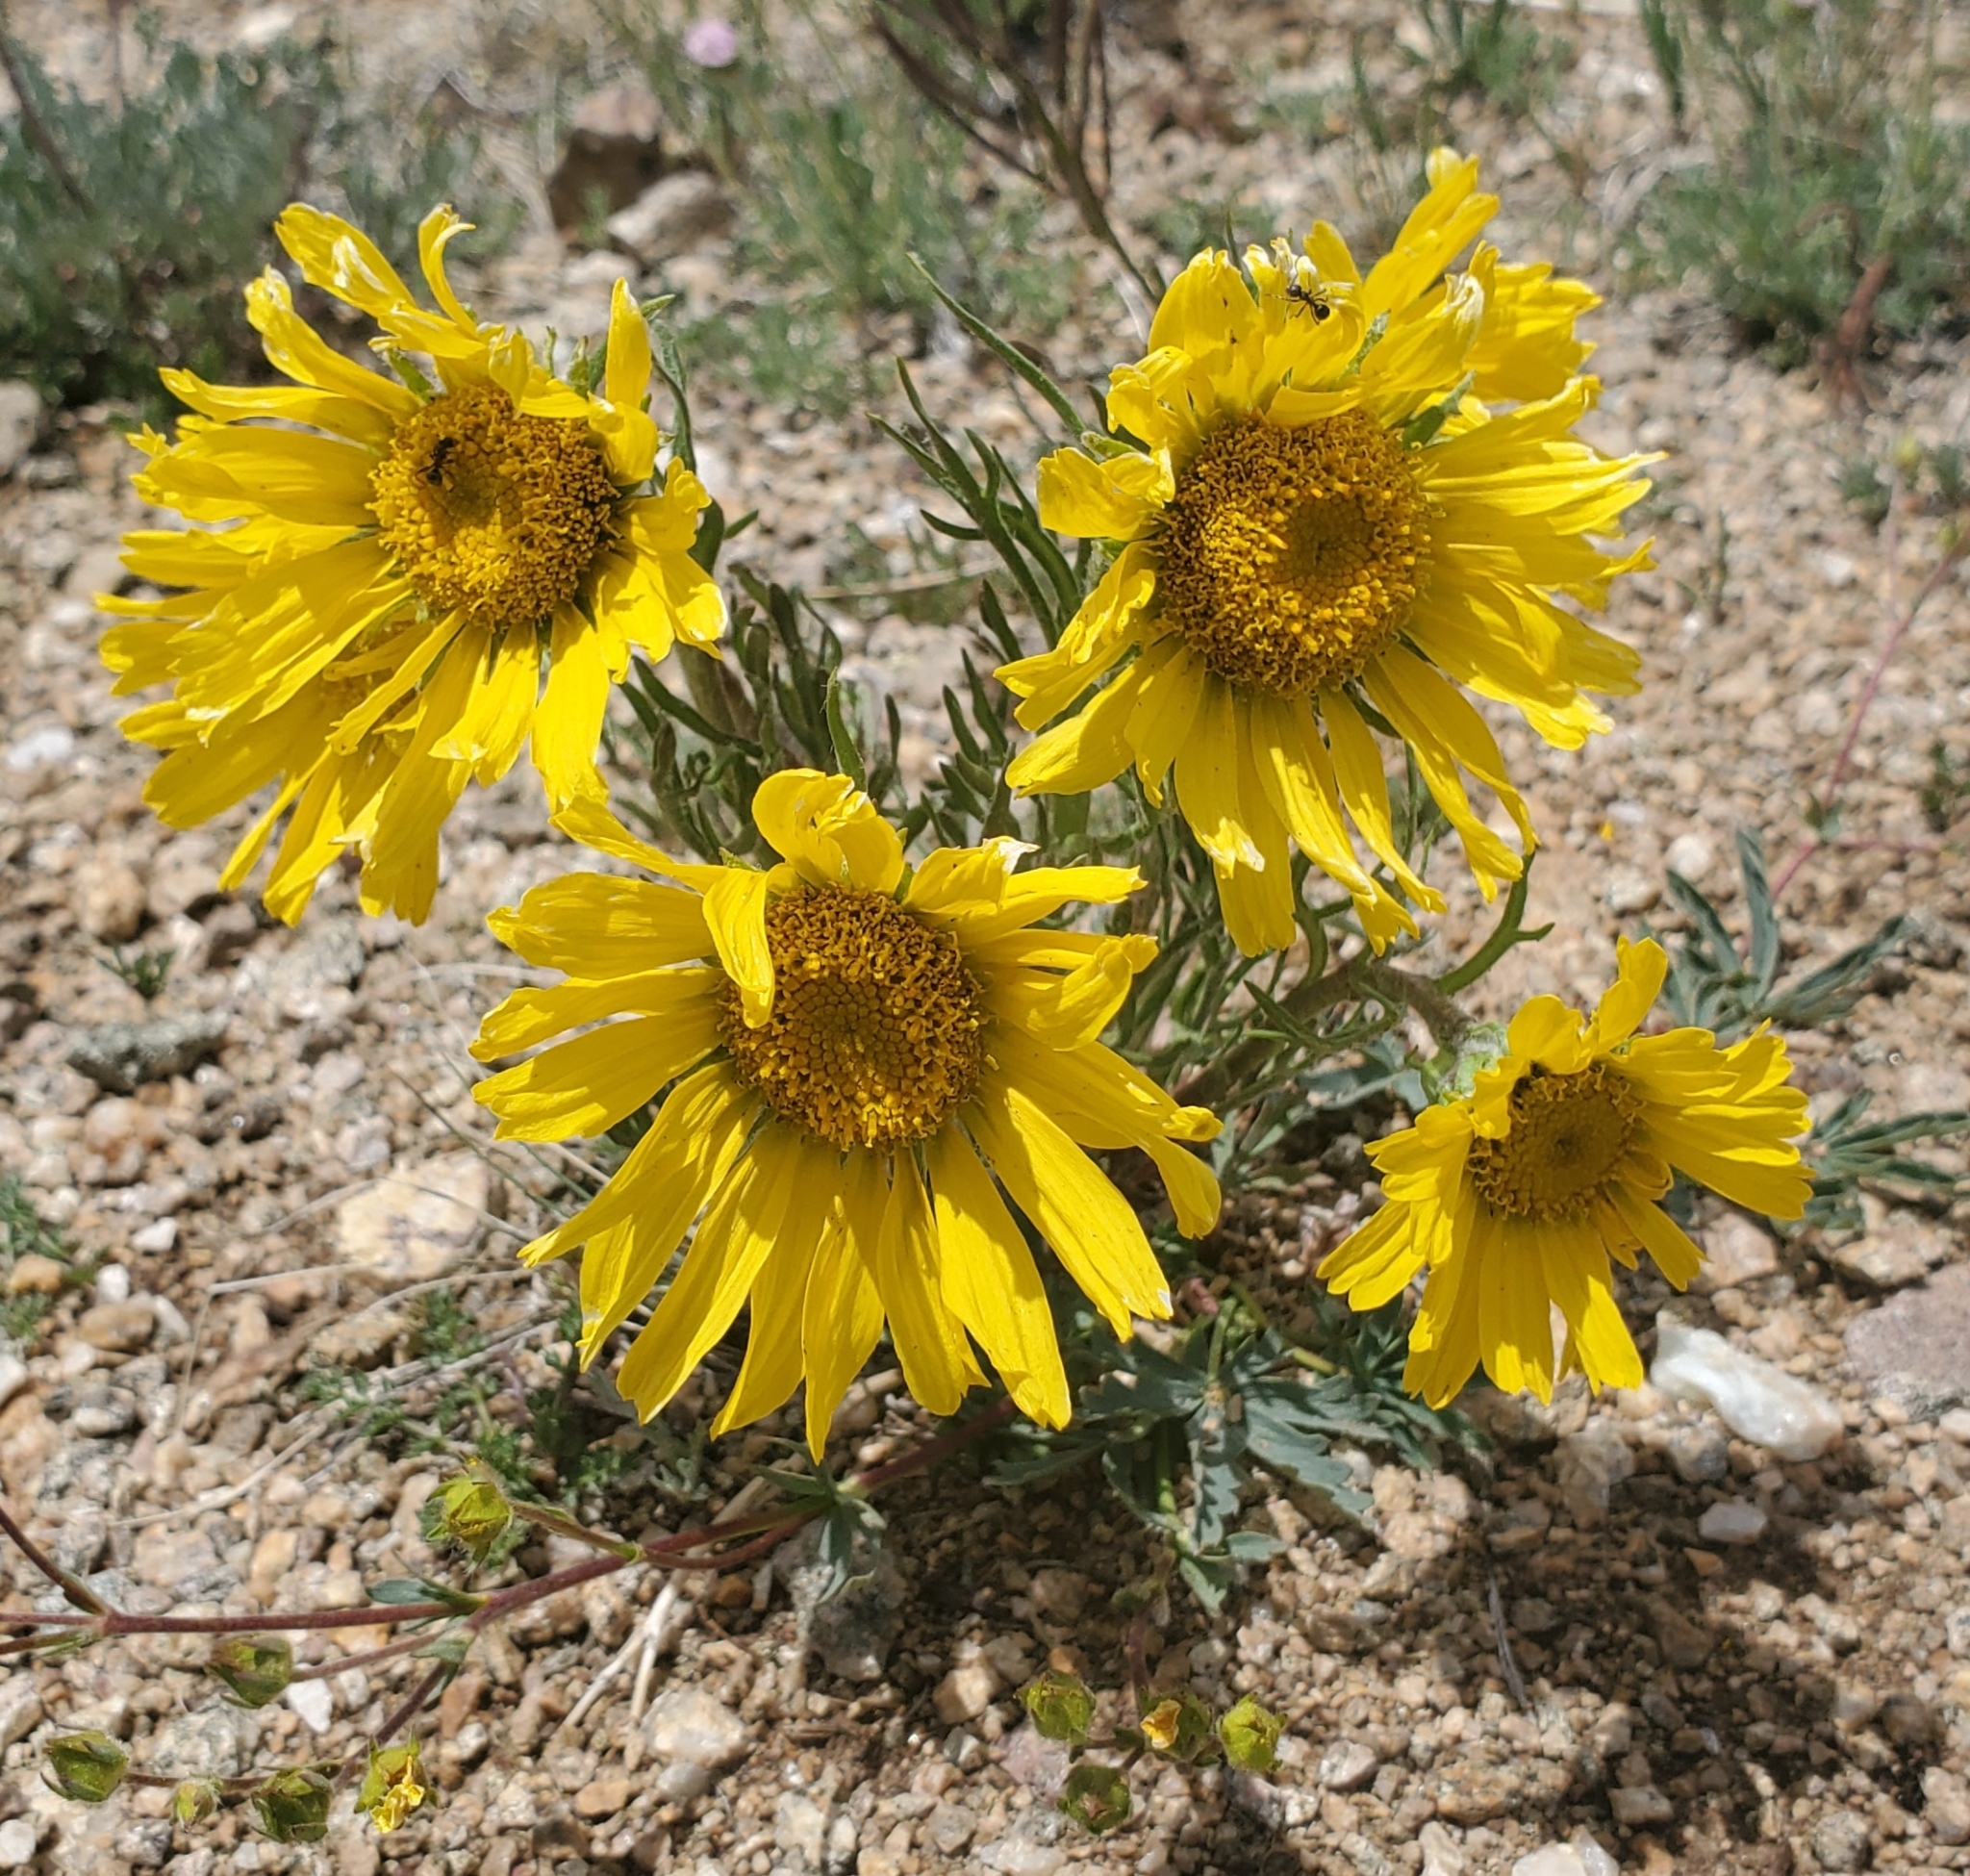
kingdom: Plantae
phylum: Tracheophyta
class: Magnoliopsida
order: Asterales
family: Asteraceae
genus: Hymenoxys
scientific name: Hymenoxys grandiflora
